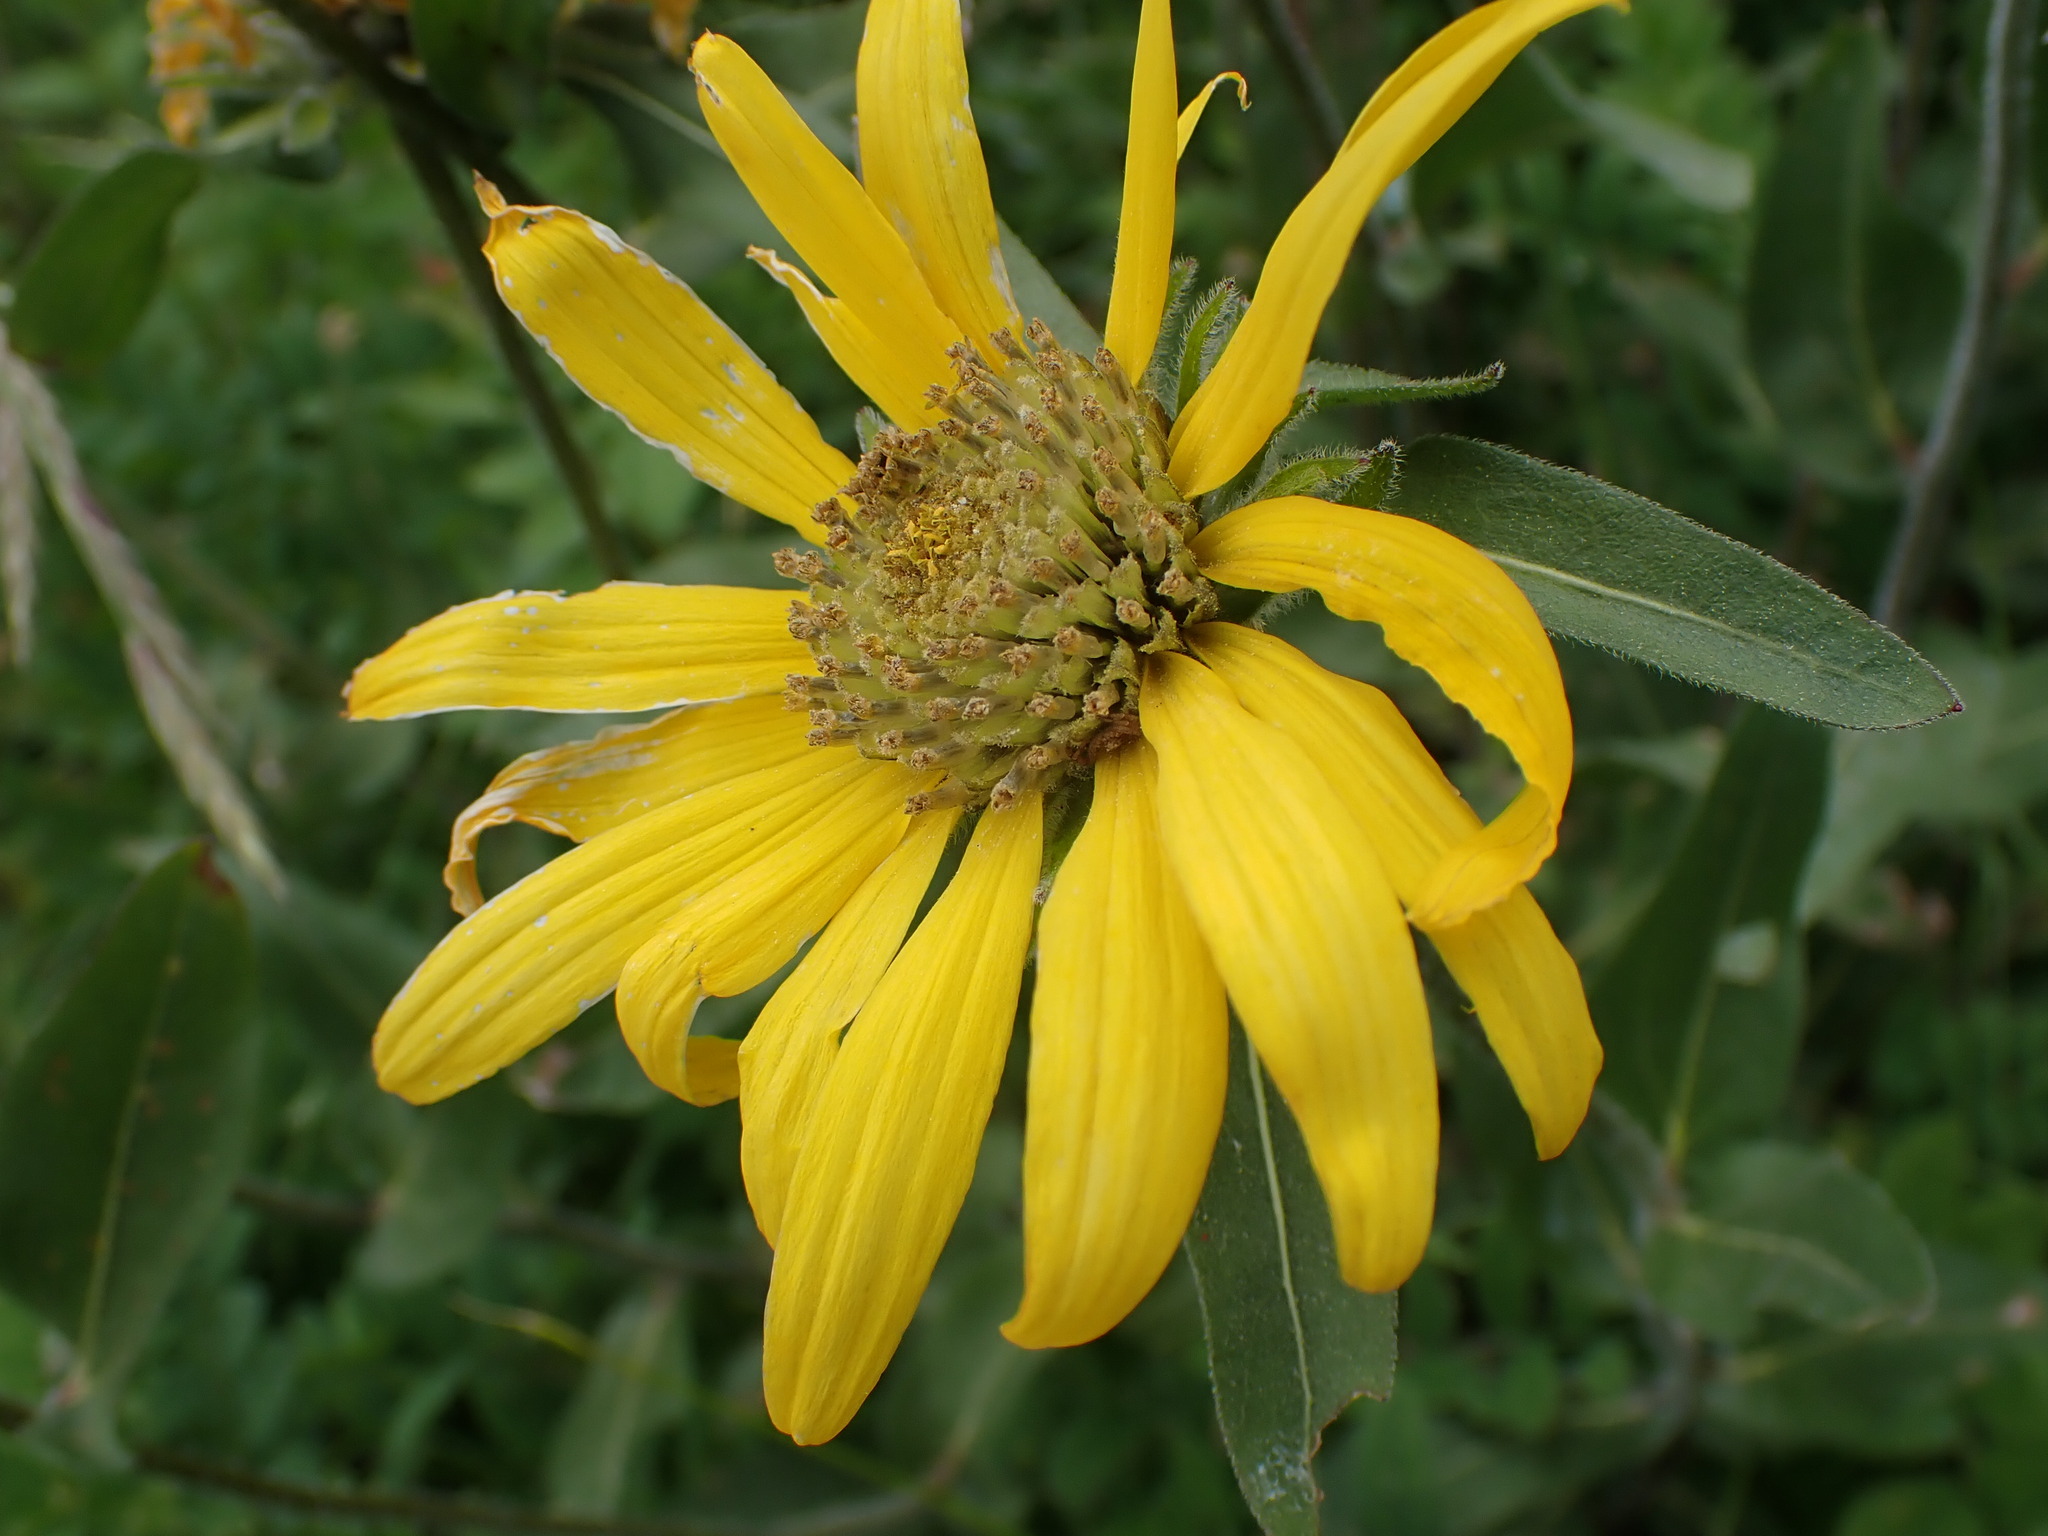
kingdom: Plantae
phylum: Tracheophyta
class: Magnoliopsida
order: Asterales
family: Asteraceae
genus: Helianthella
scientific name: Helianthella uniflora
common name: Rocky mountain dwarf sunflower
